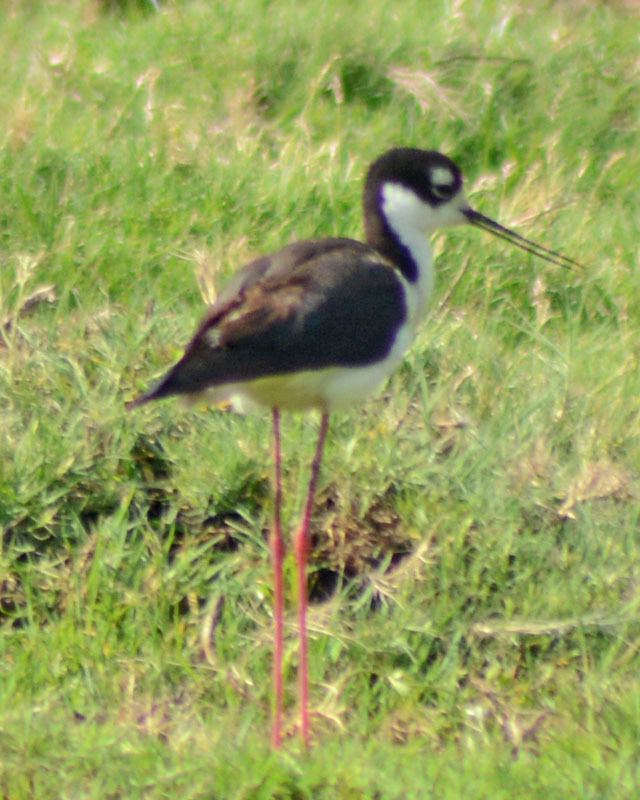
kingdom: Animalia
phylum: Chordata
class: Aves
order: Charadriiformes
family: Recurvirostridae
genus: Himantopus
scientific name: Himantopus mexicanus
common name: Black-necked stilt
